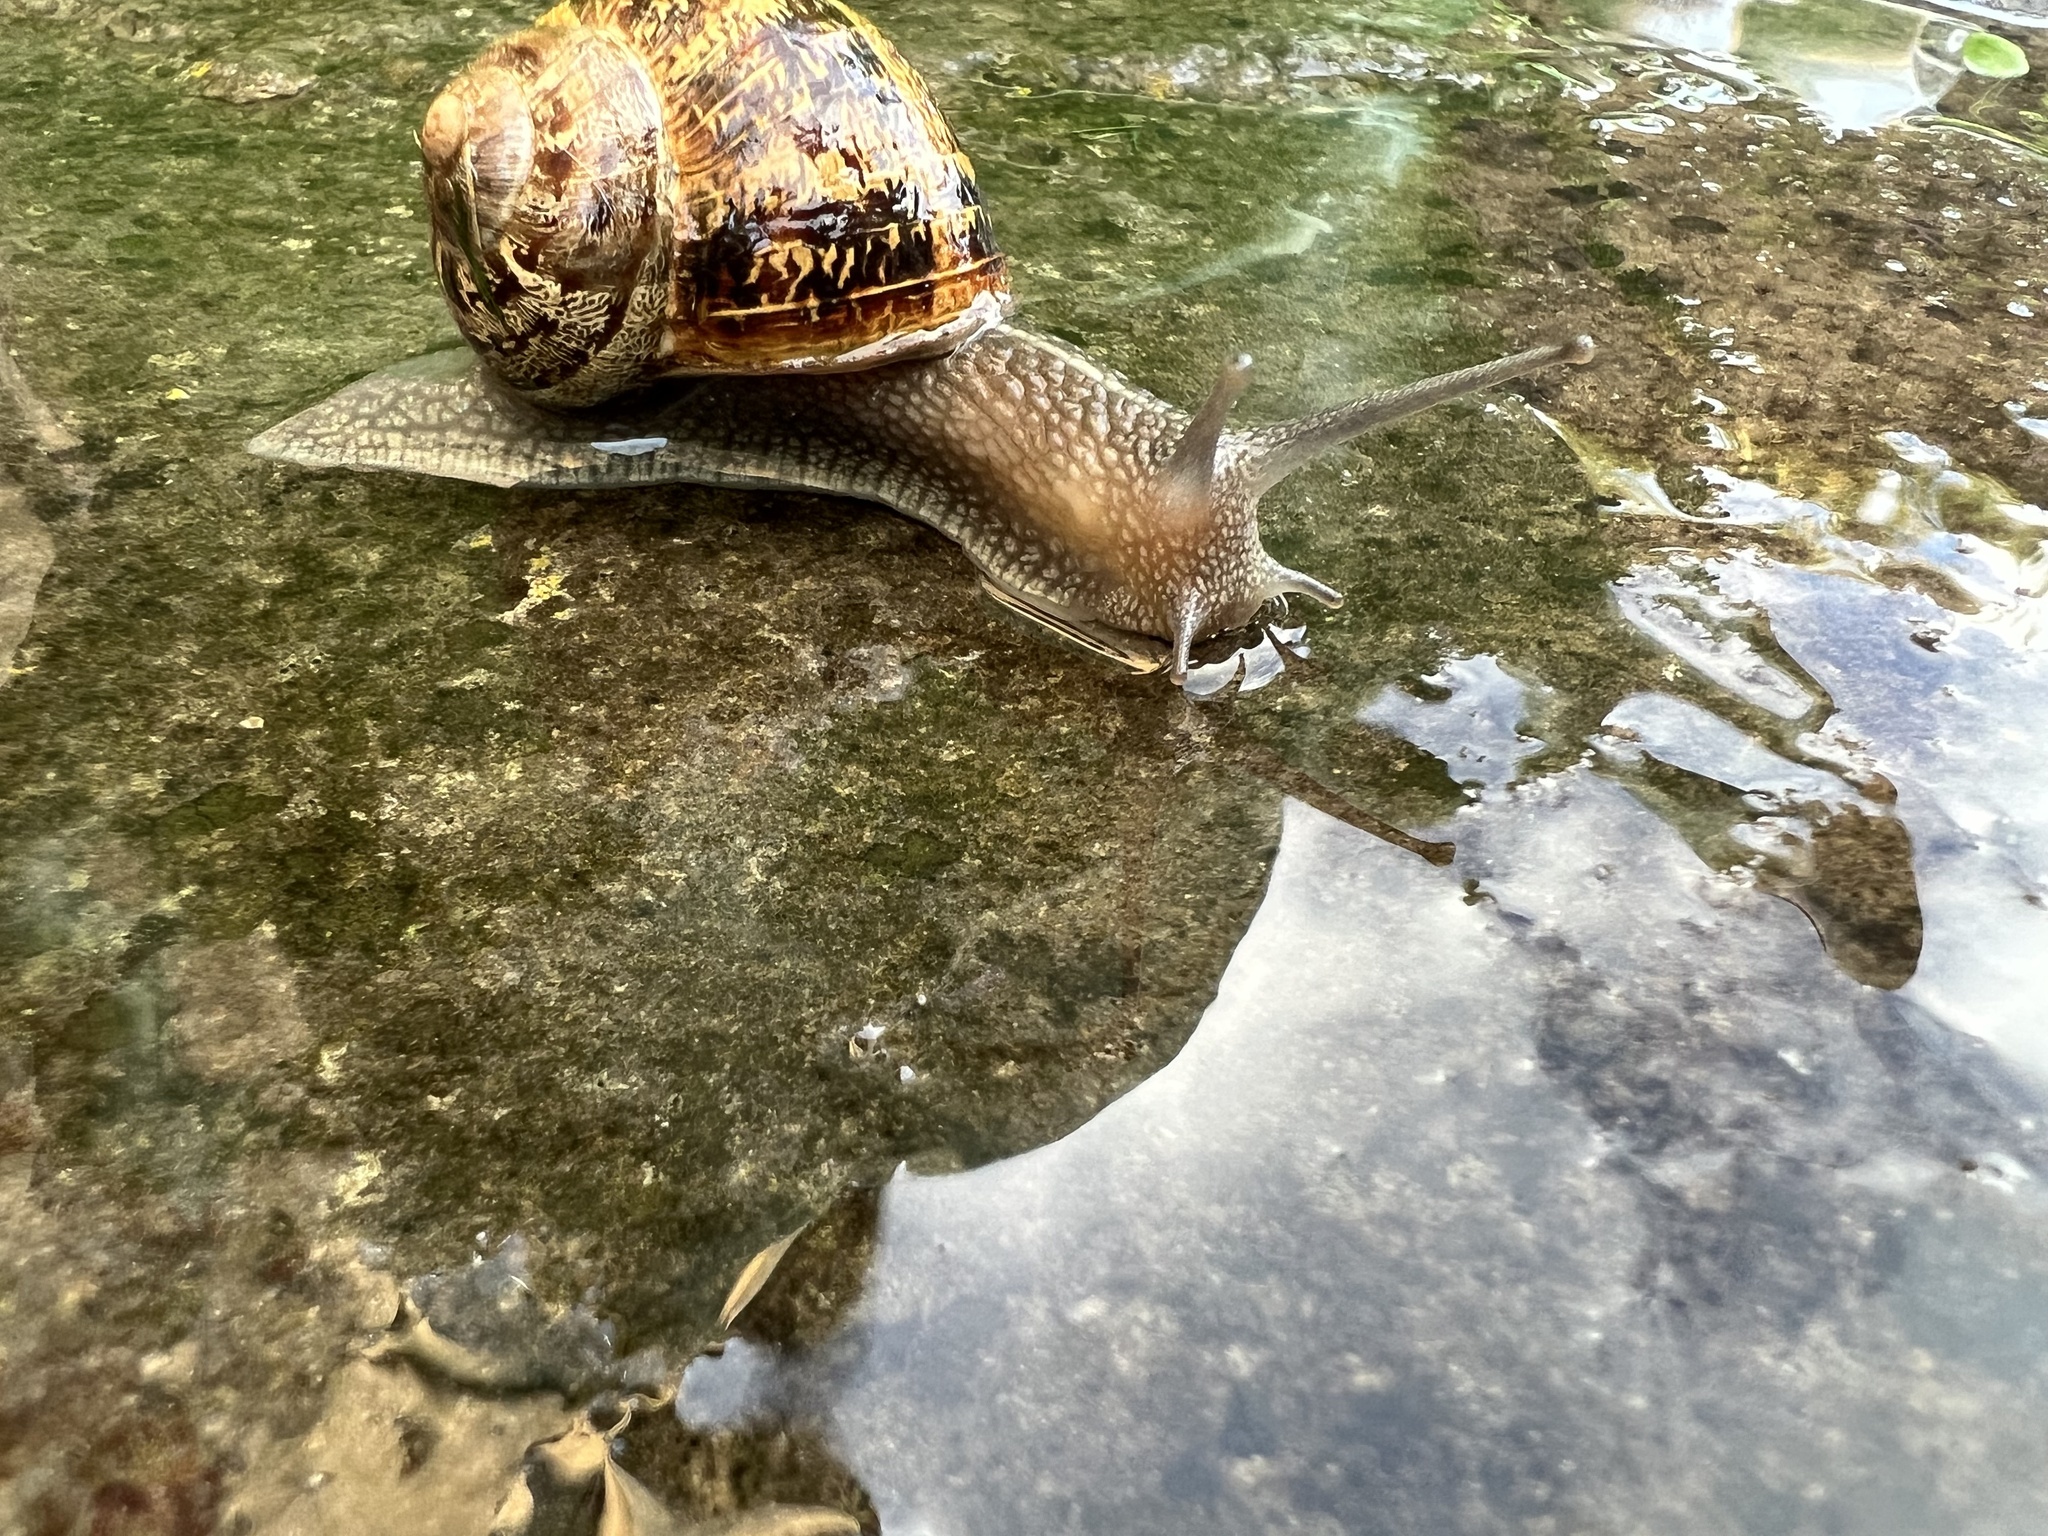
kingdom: Animalia
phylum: Mollusca
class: Gastropoda
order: Stylommatophora
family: Helicidae
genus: Cornu
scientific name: Cornu aspersum
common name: Brown garden snail
